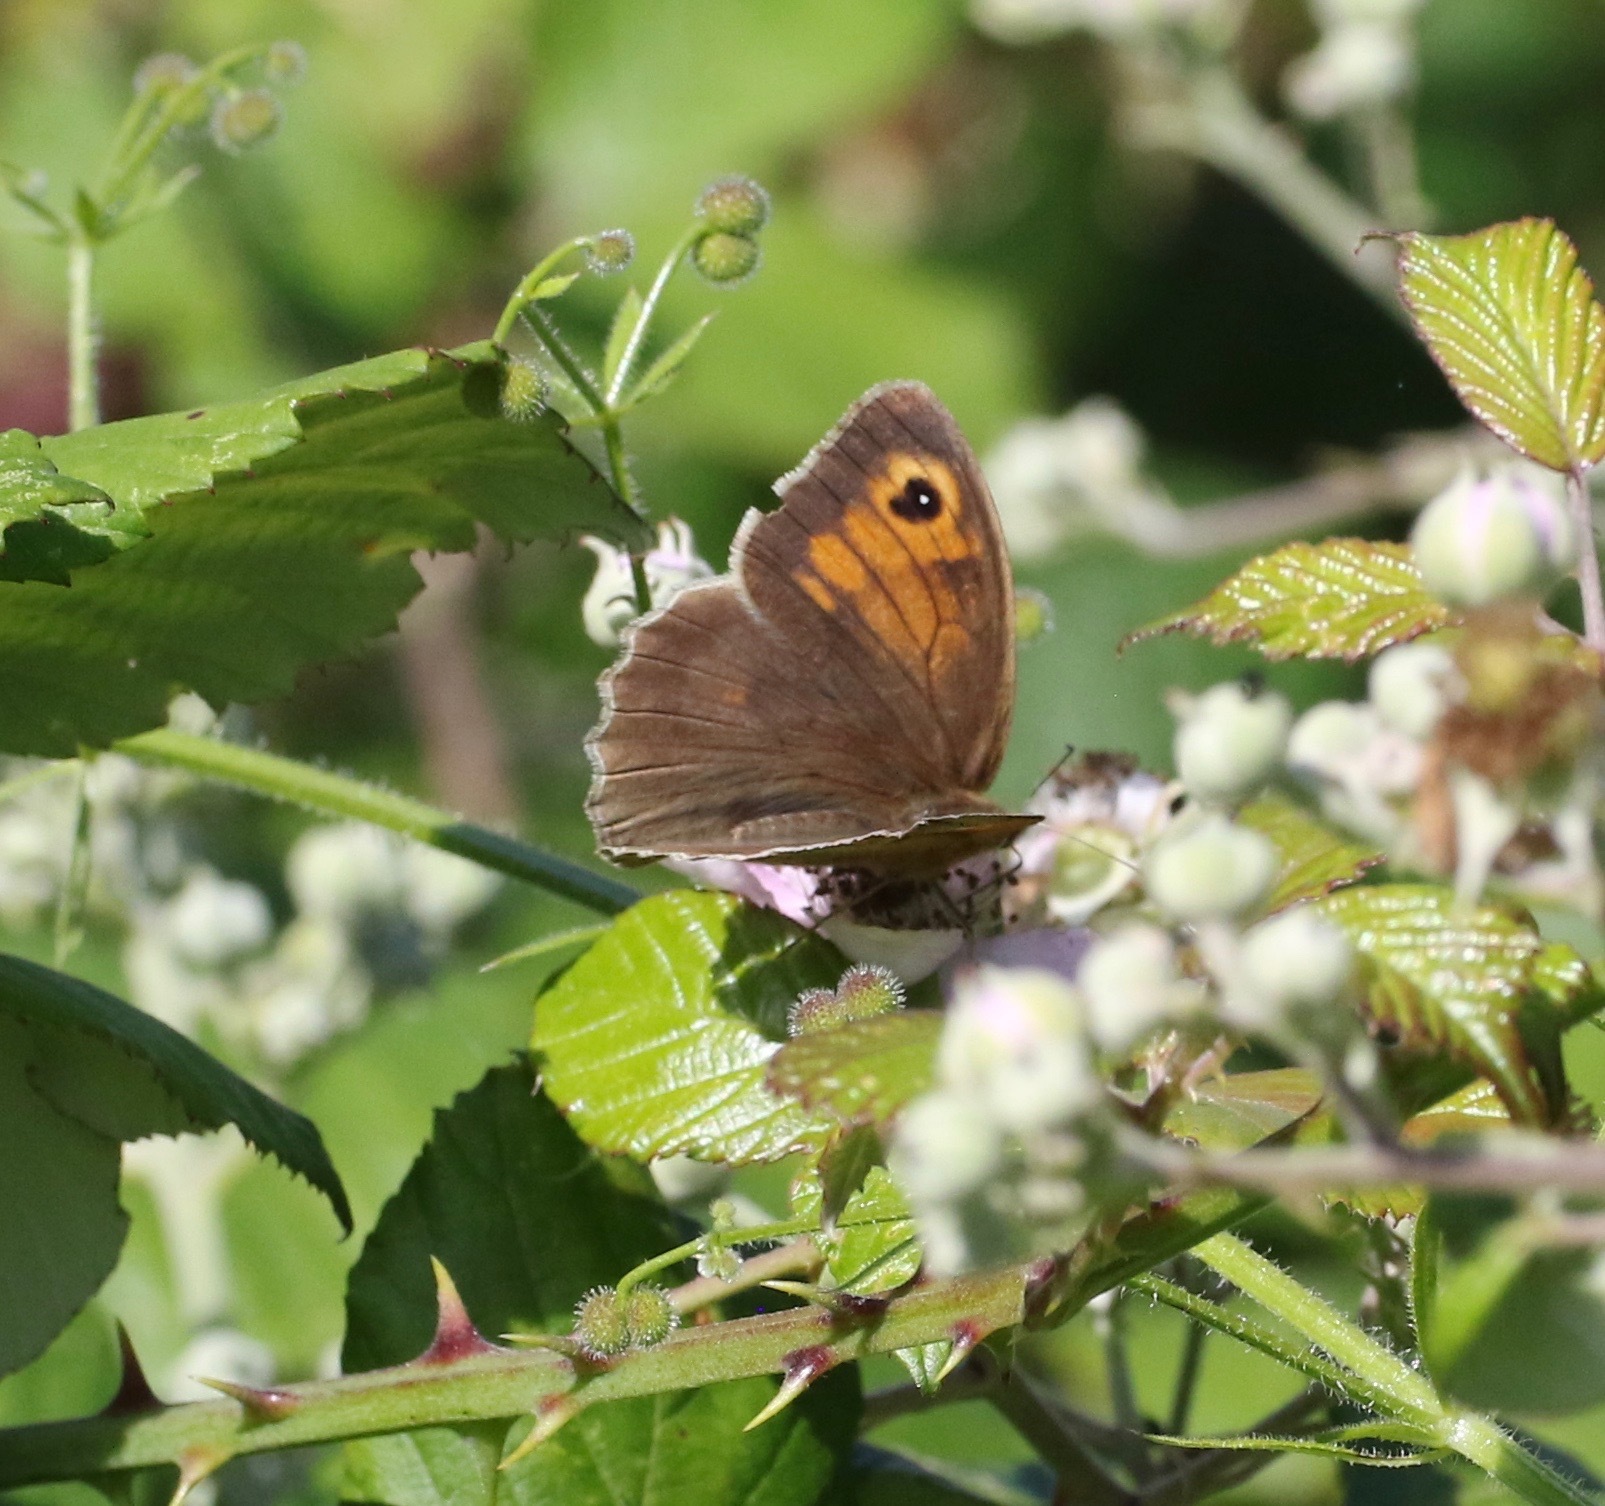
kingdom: Animalia
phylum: Arthropoda
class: Insecta
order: Lepidoptera
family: Nymphalidae
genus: Maniola
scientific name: Maniola jurtina
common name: Meadow brown
